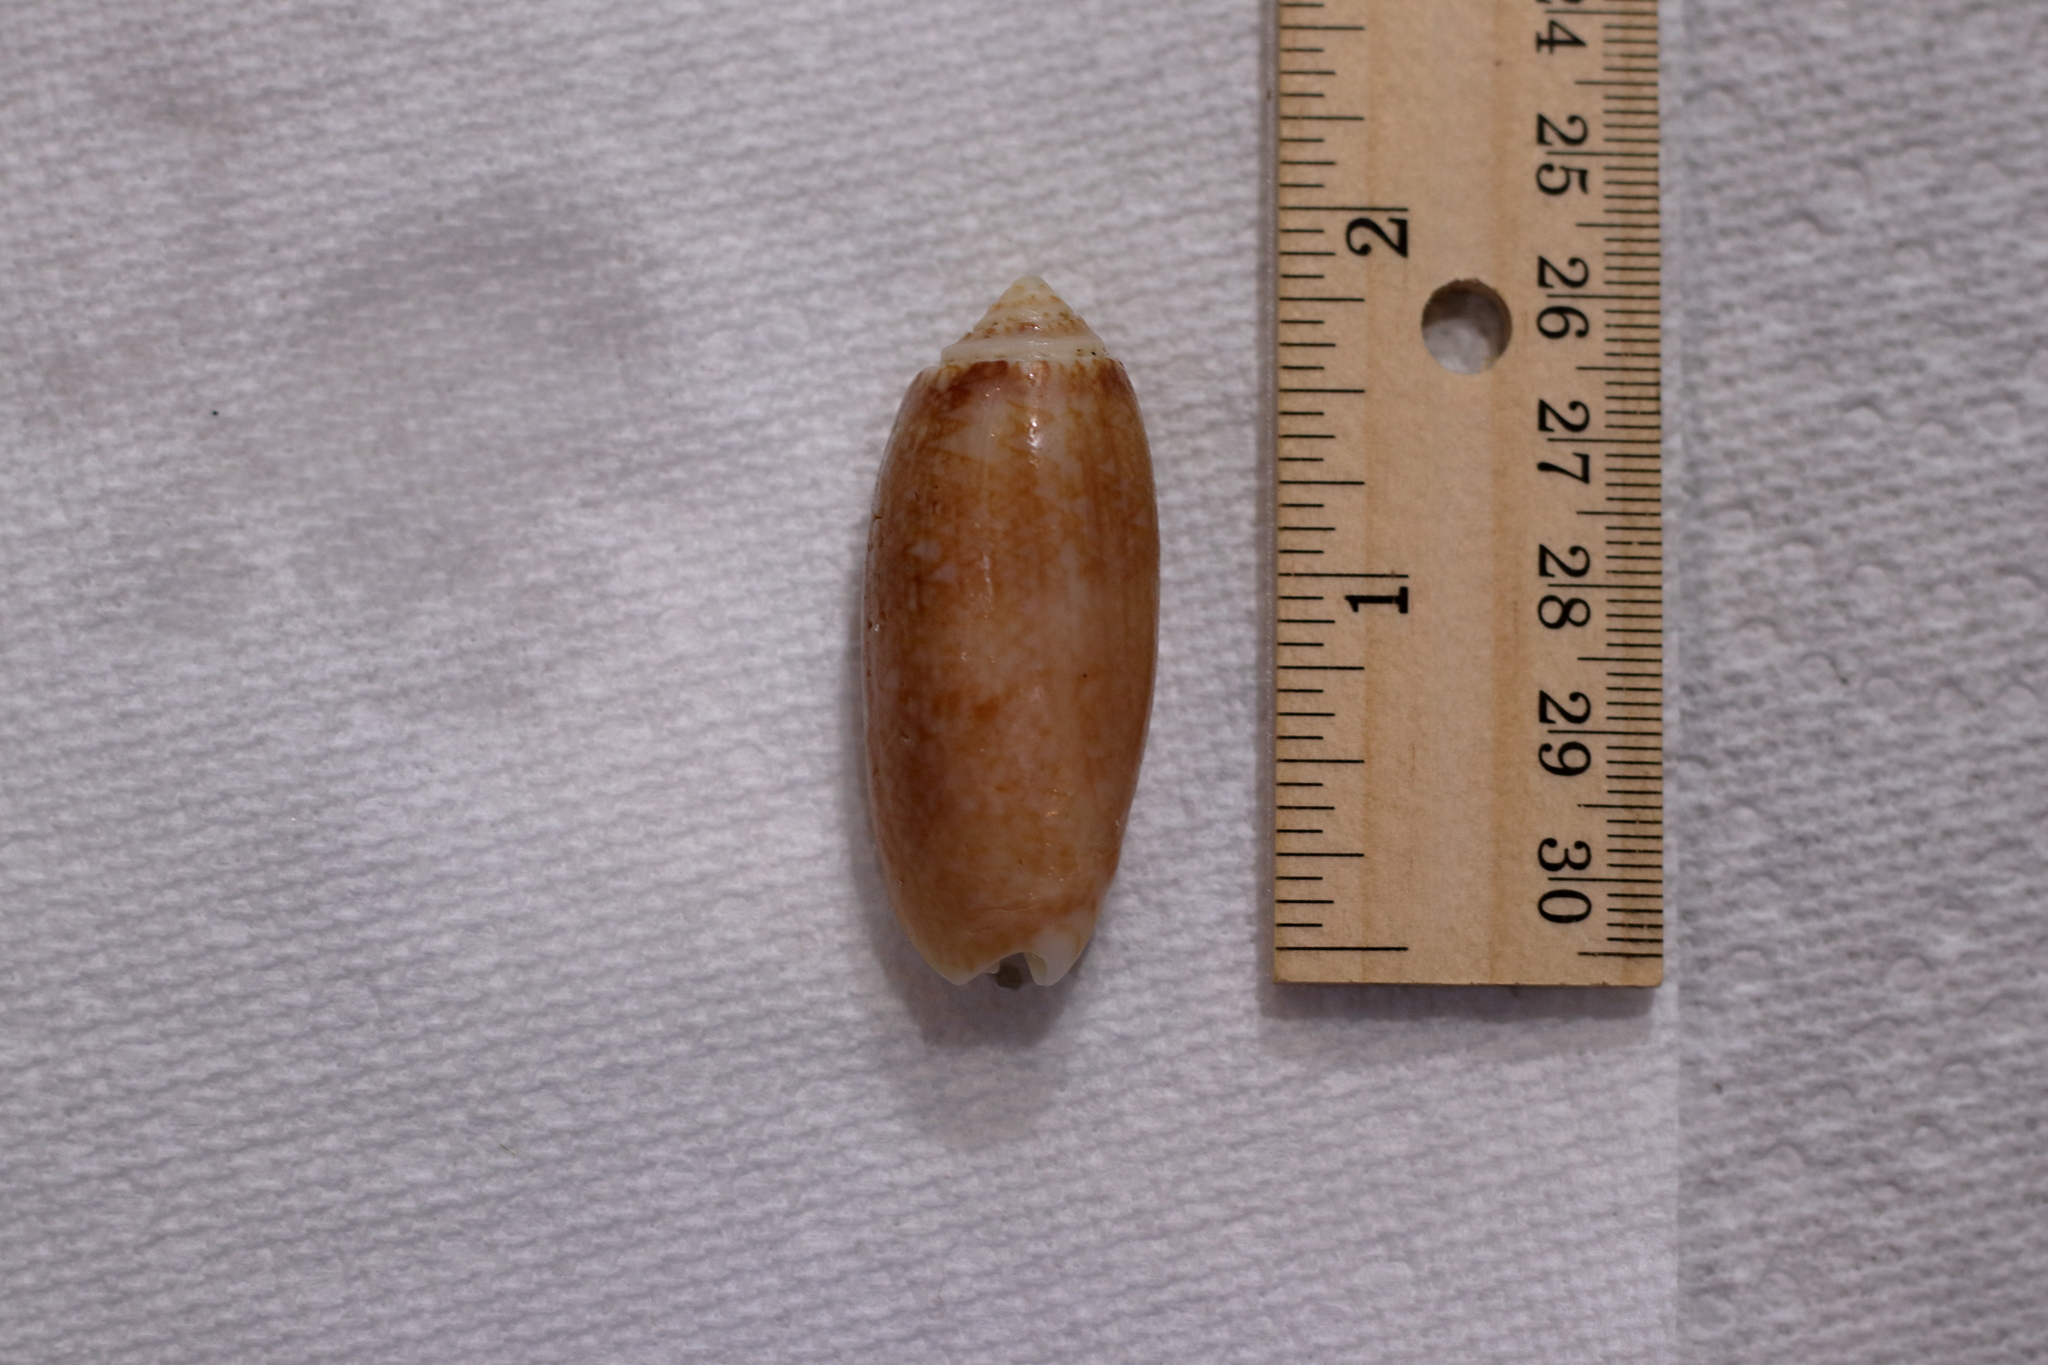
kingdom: Animalia
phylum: Mollusca
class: Gastropoda
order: Neogastropoda
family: Olividae
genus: Oliva
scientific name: Oliva sayana
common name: Lettered olive
